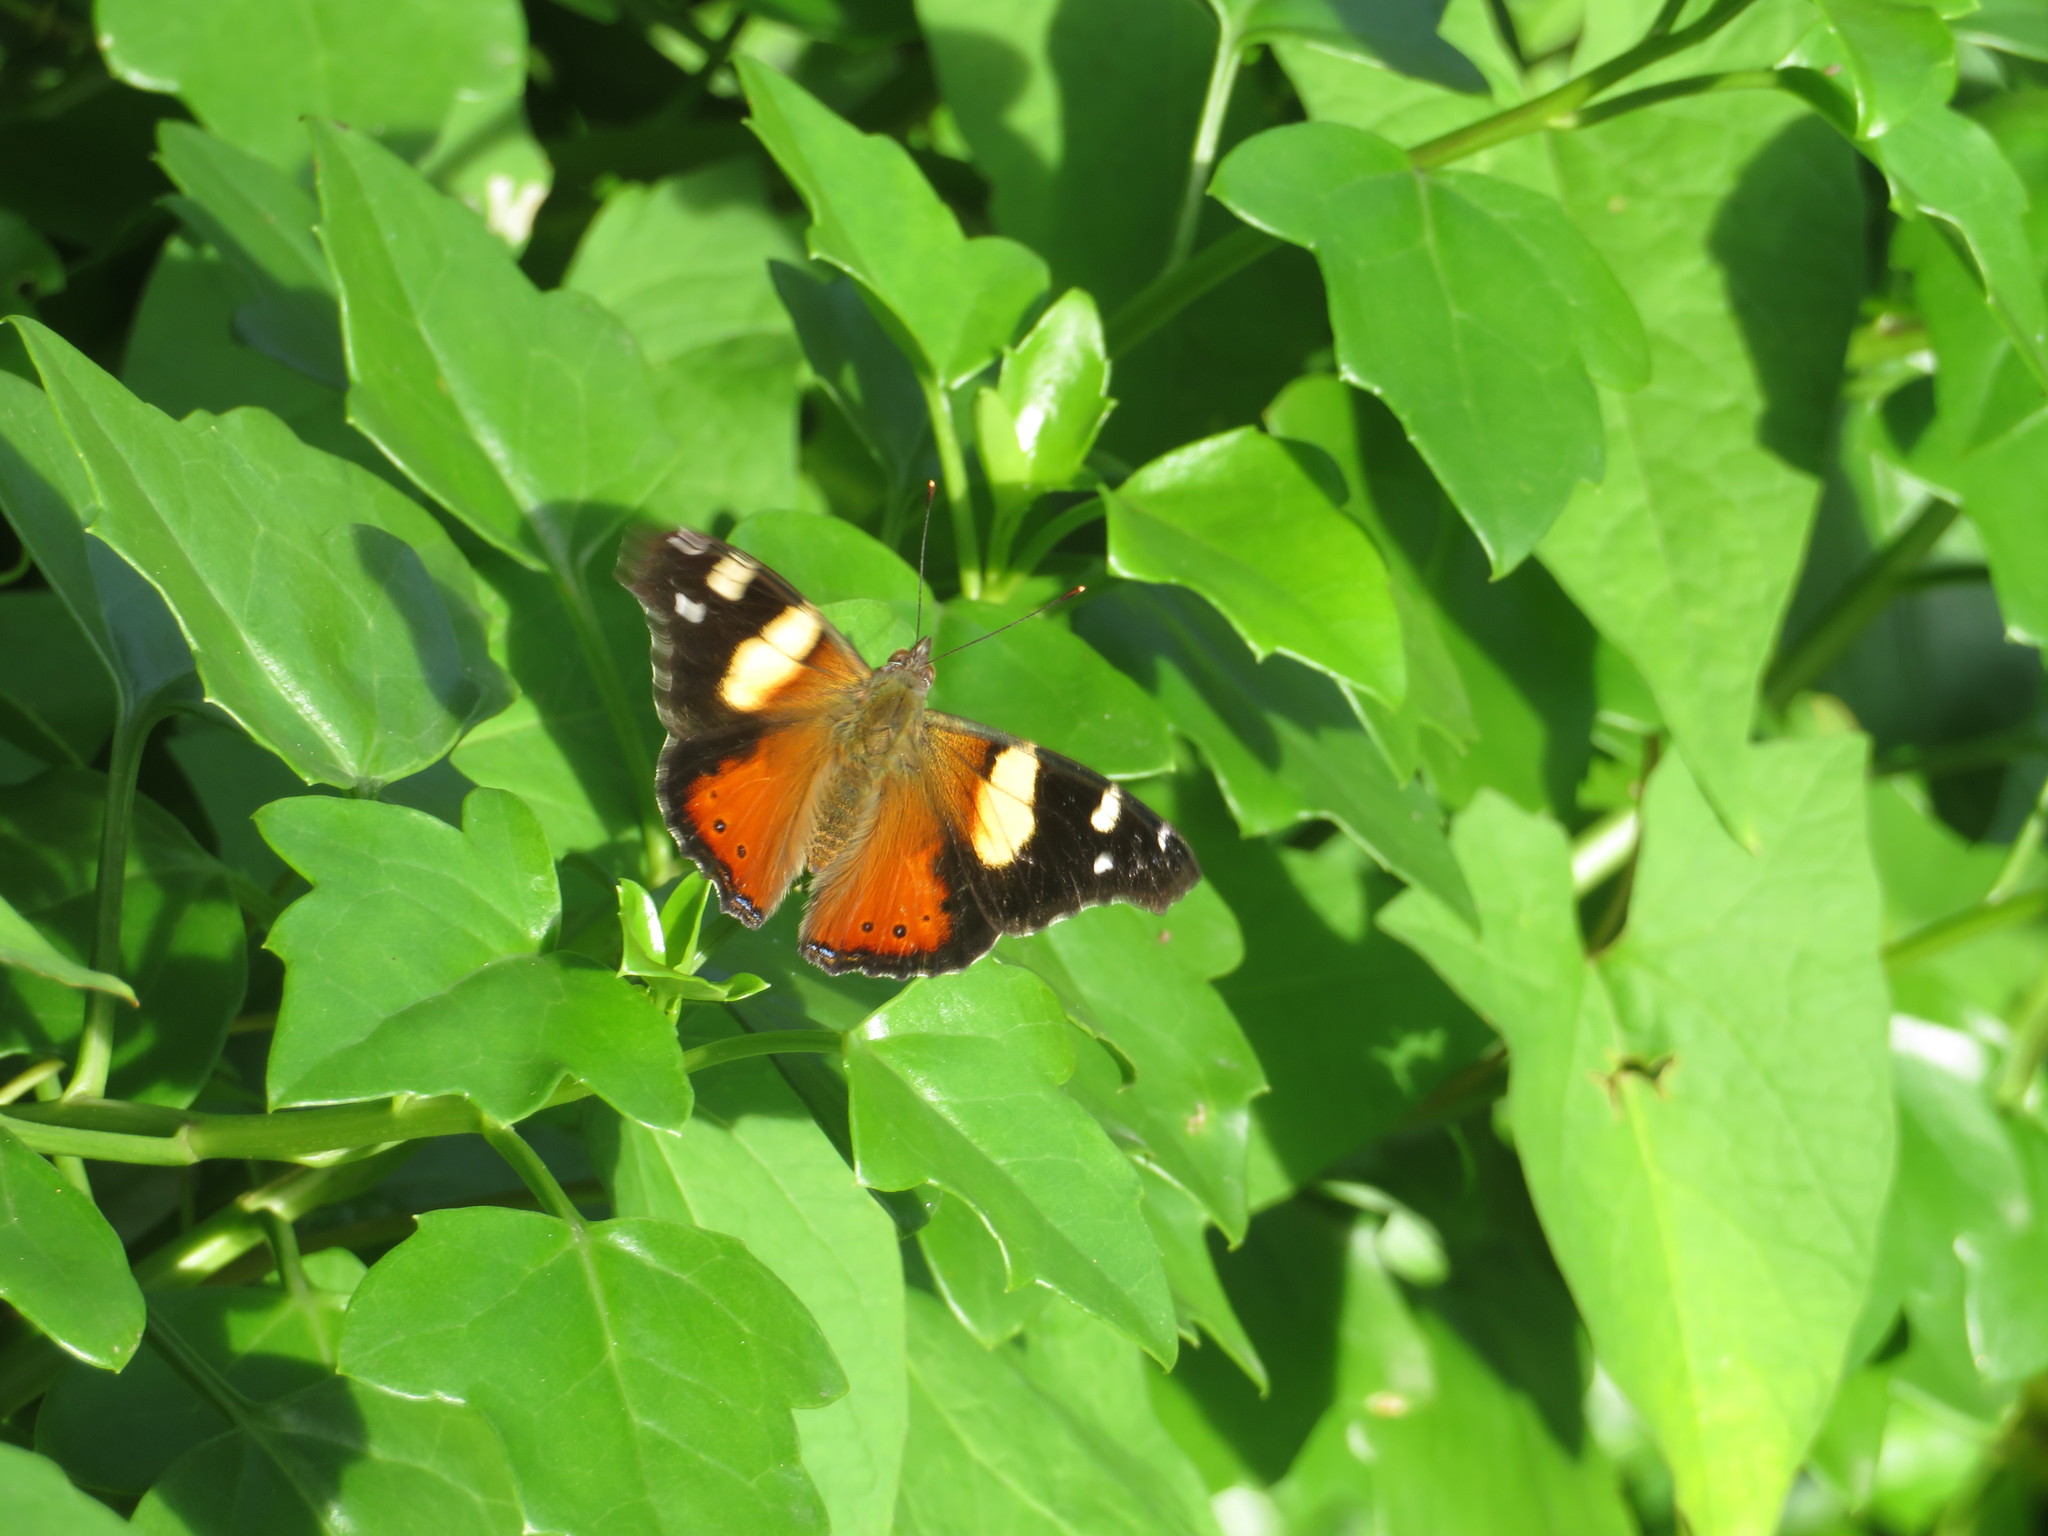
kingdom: Animalia
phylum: Arthropoda
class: Insecta
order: Lepidoptera
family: Nymphalidae
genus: Vanessa
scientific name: Vanessa itea
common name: Yellow admiral
